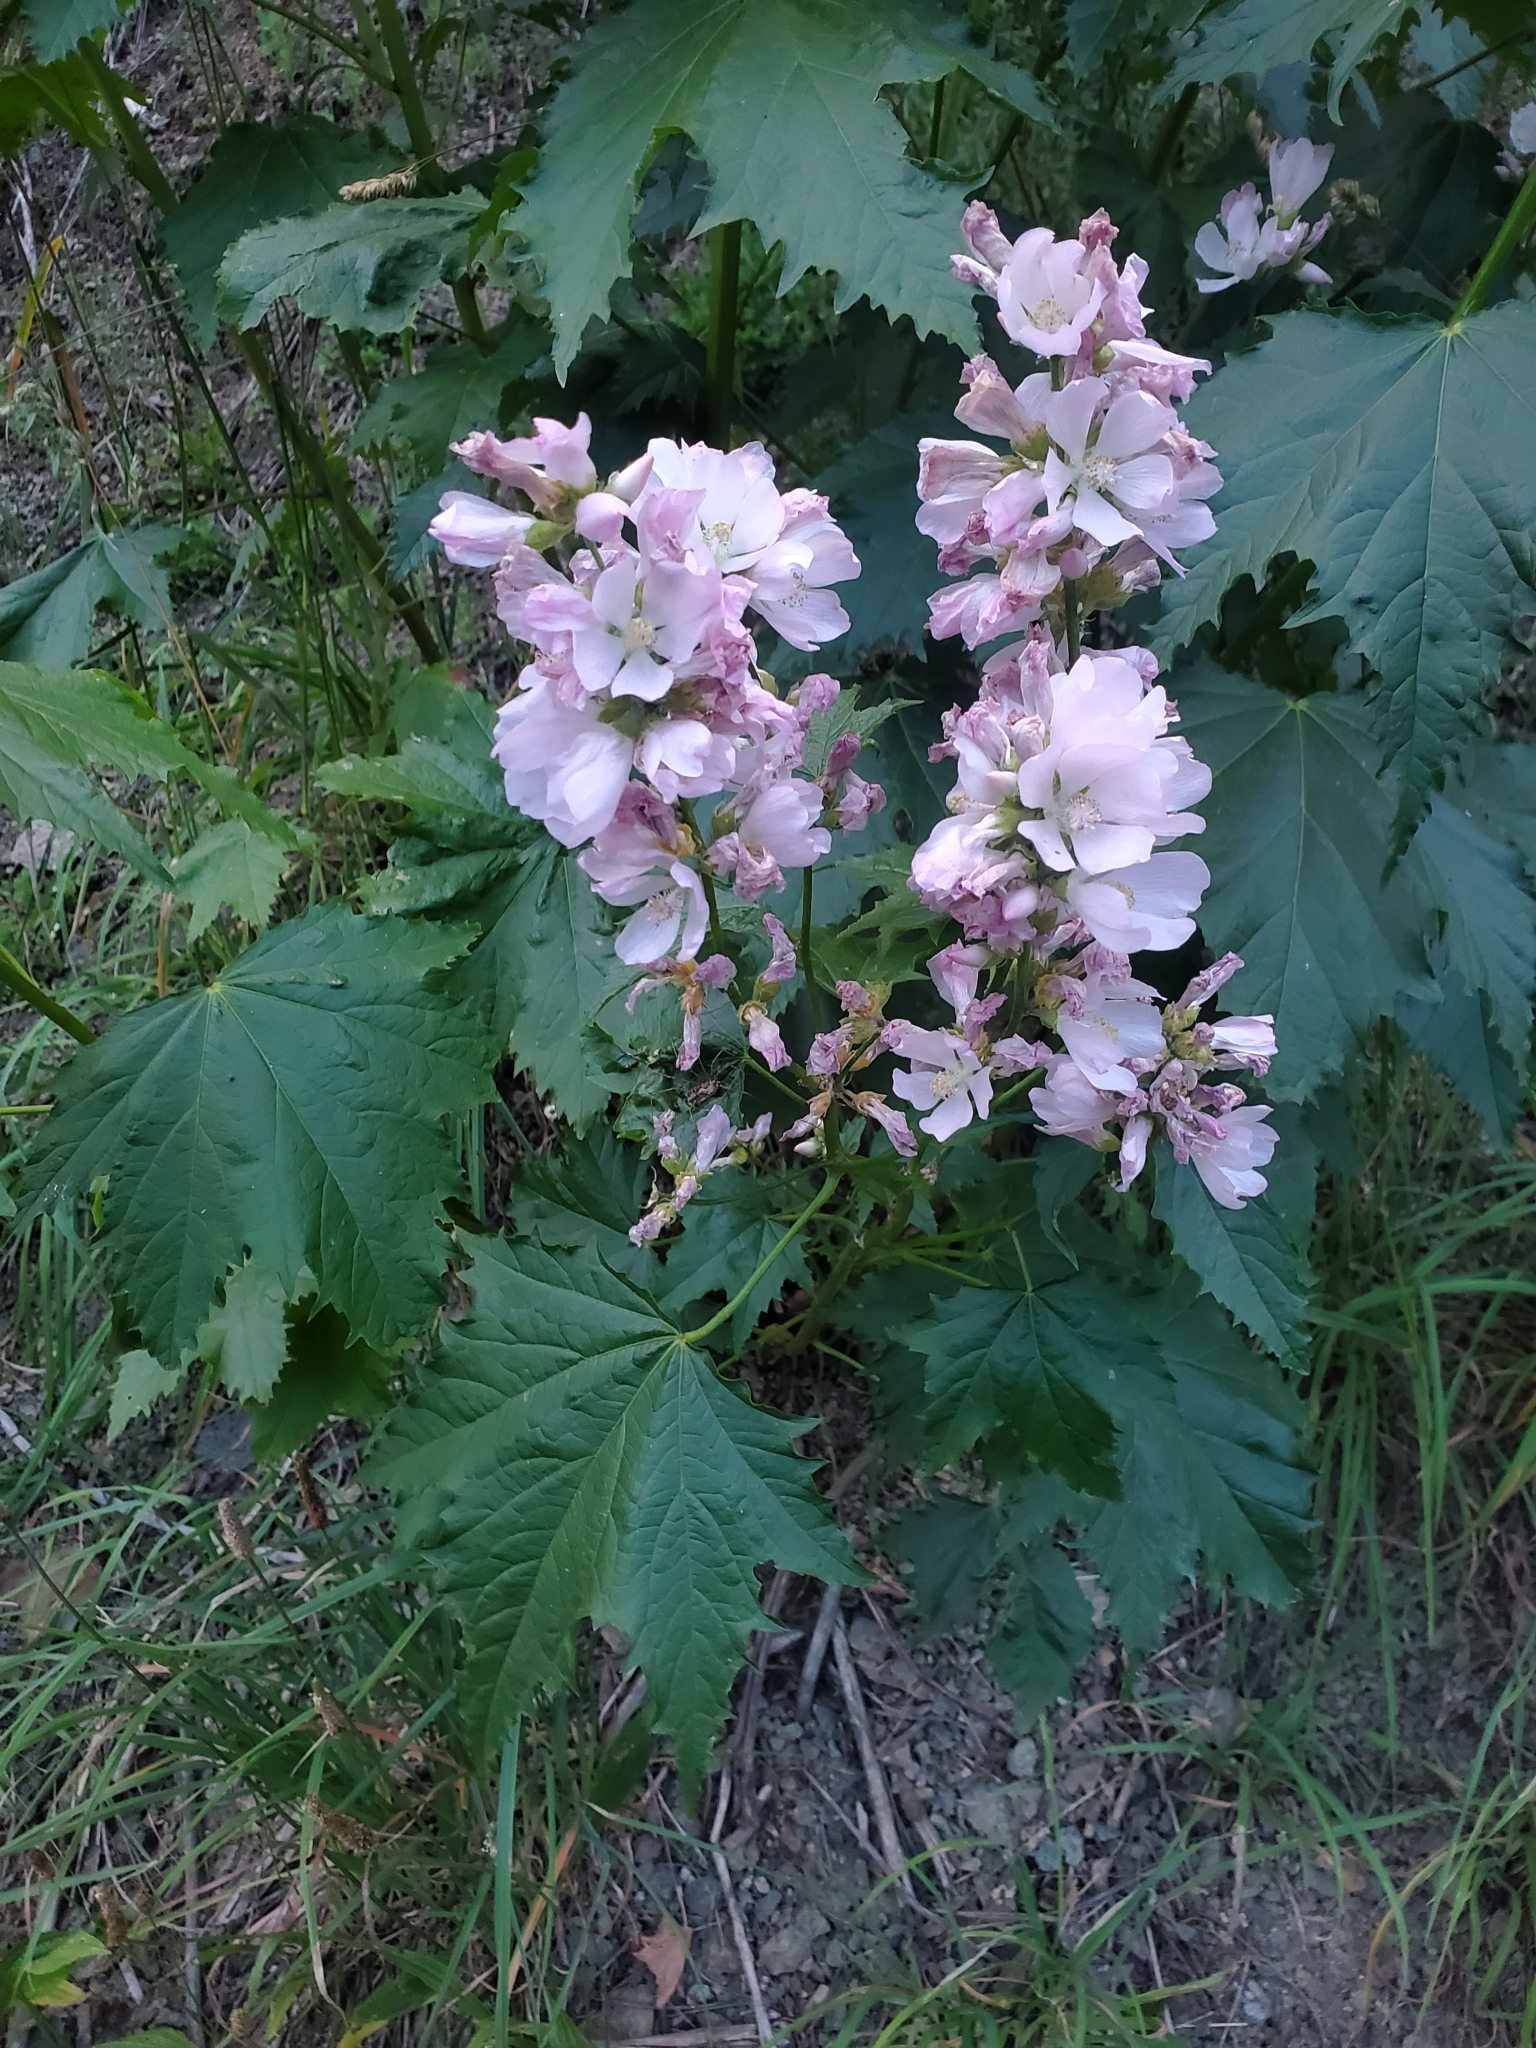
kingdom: Plantae
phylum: Tracheophyta
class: Magnoliopsida
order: Malvales
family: Malvaceae
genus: Iliamna
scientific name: Iliamna rivularis
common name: Wild hollyhock
